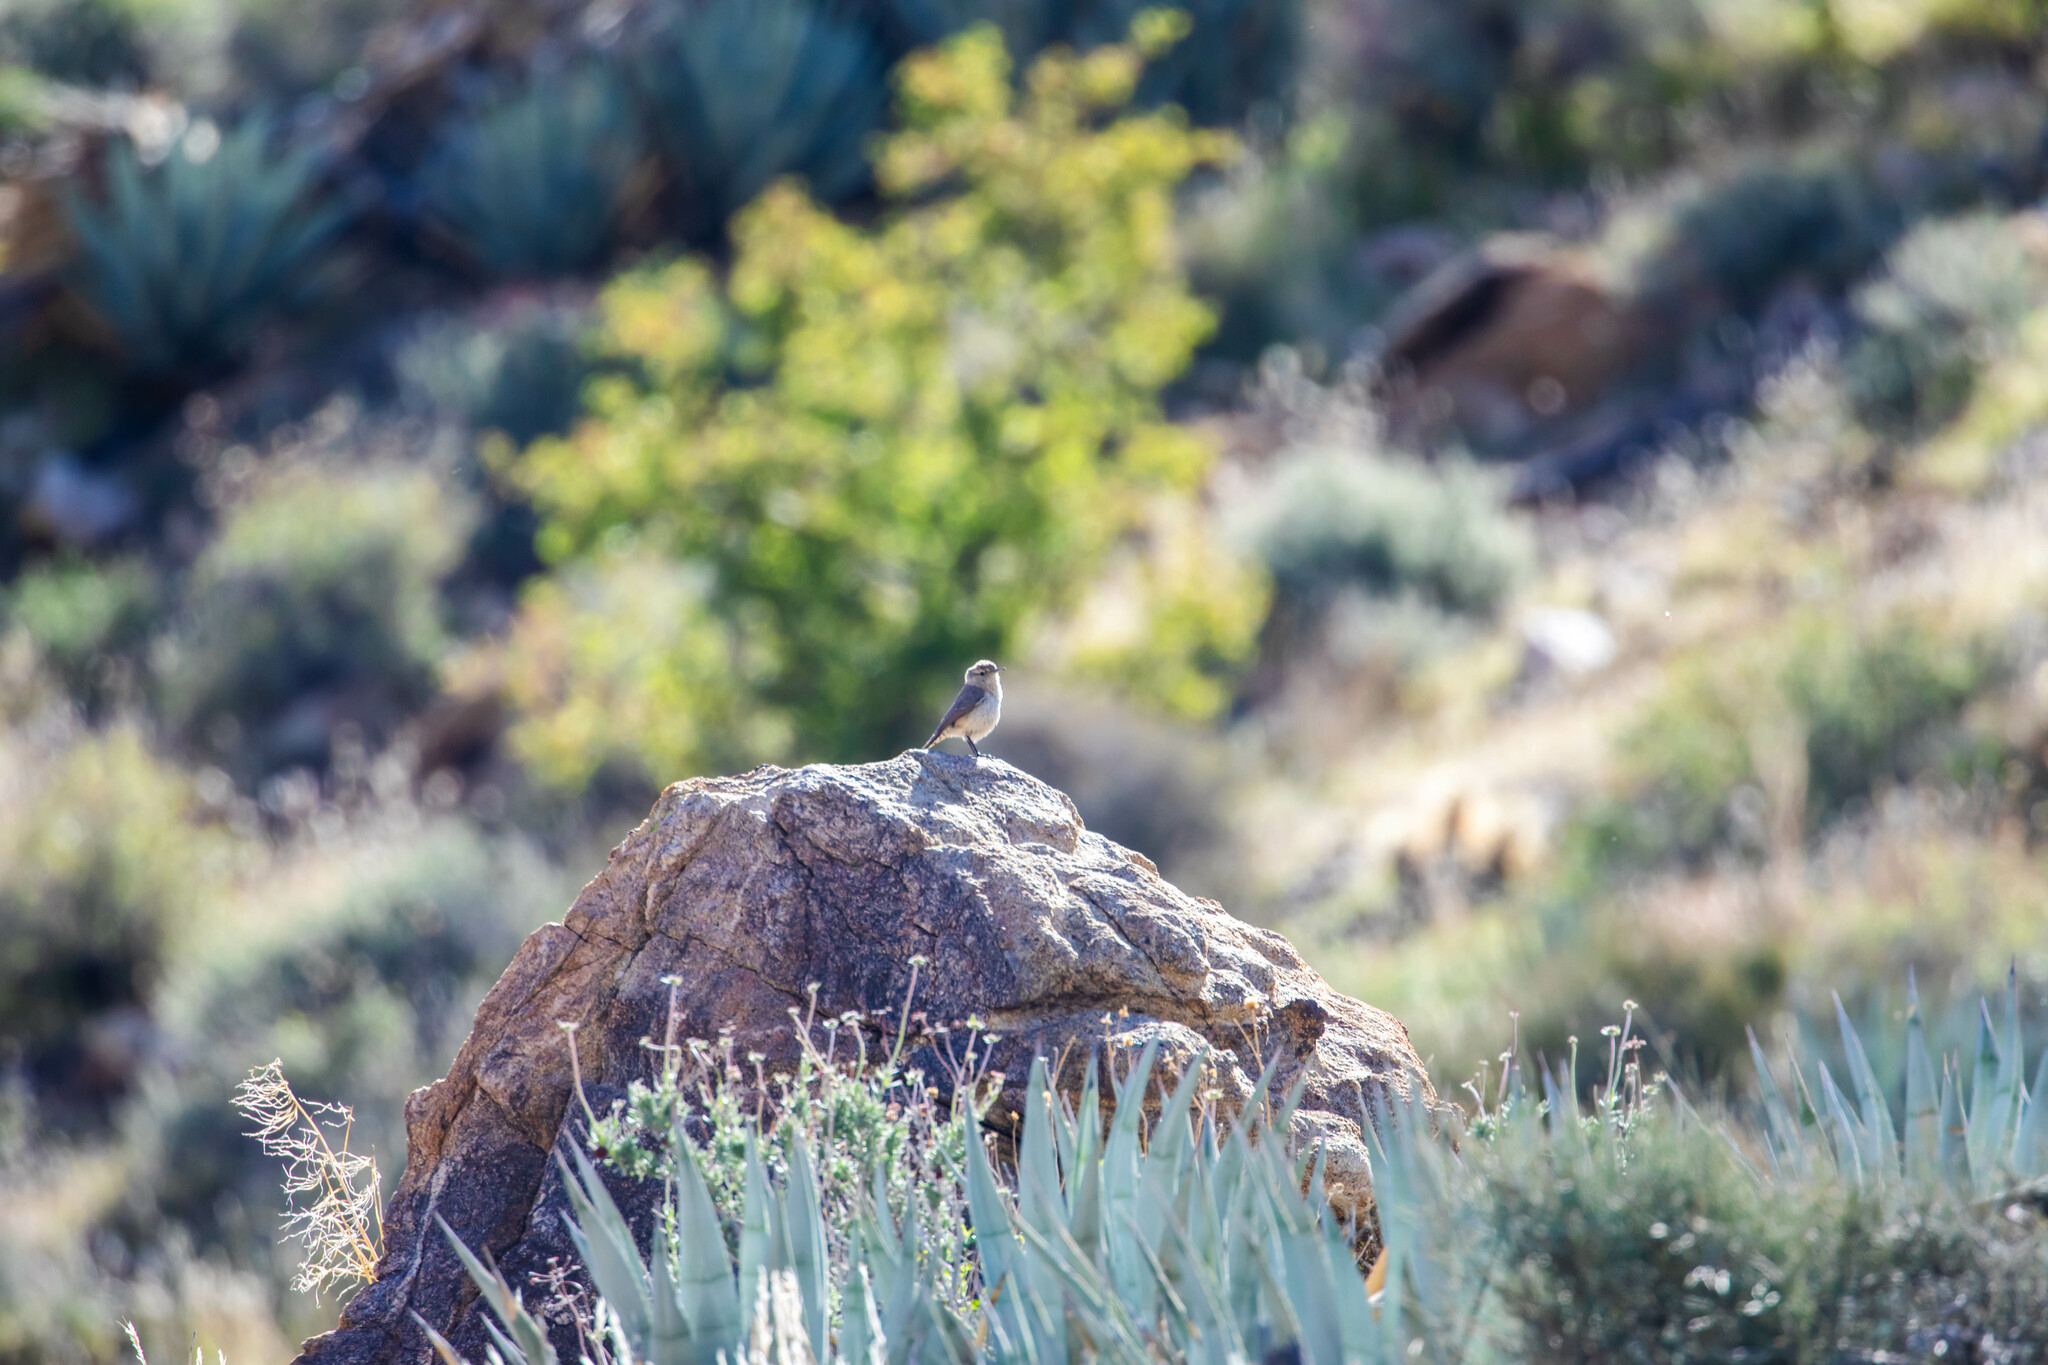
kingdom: Animalia
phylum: Chordata
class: Aves
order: Passeriformes
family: Troglodytidae
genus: Salpinctes
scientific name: Salpinctes obsoletus
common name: Rock wren
